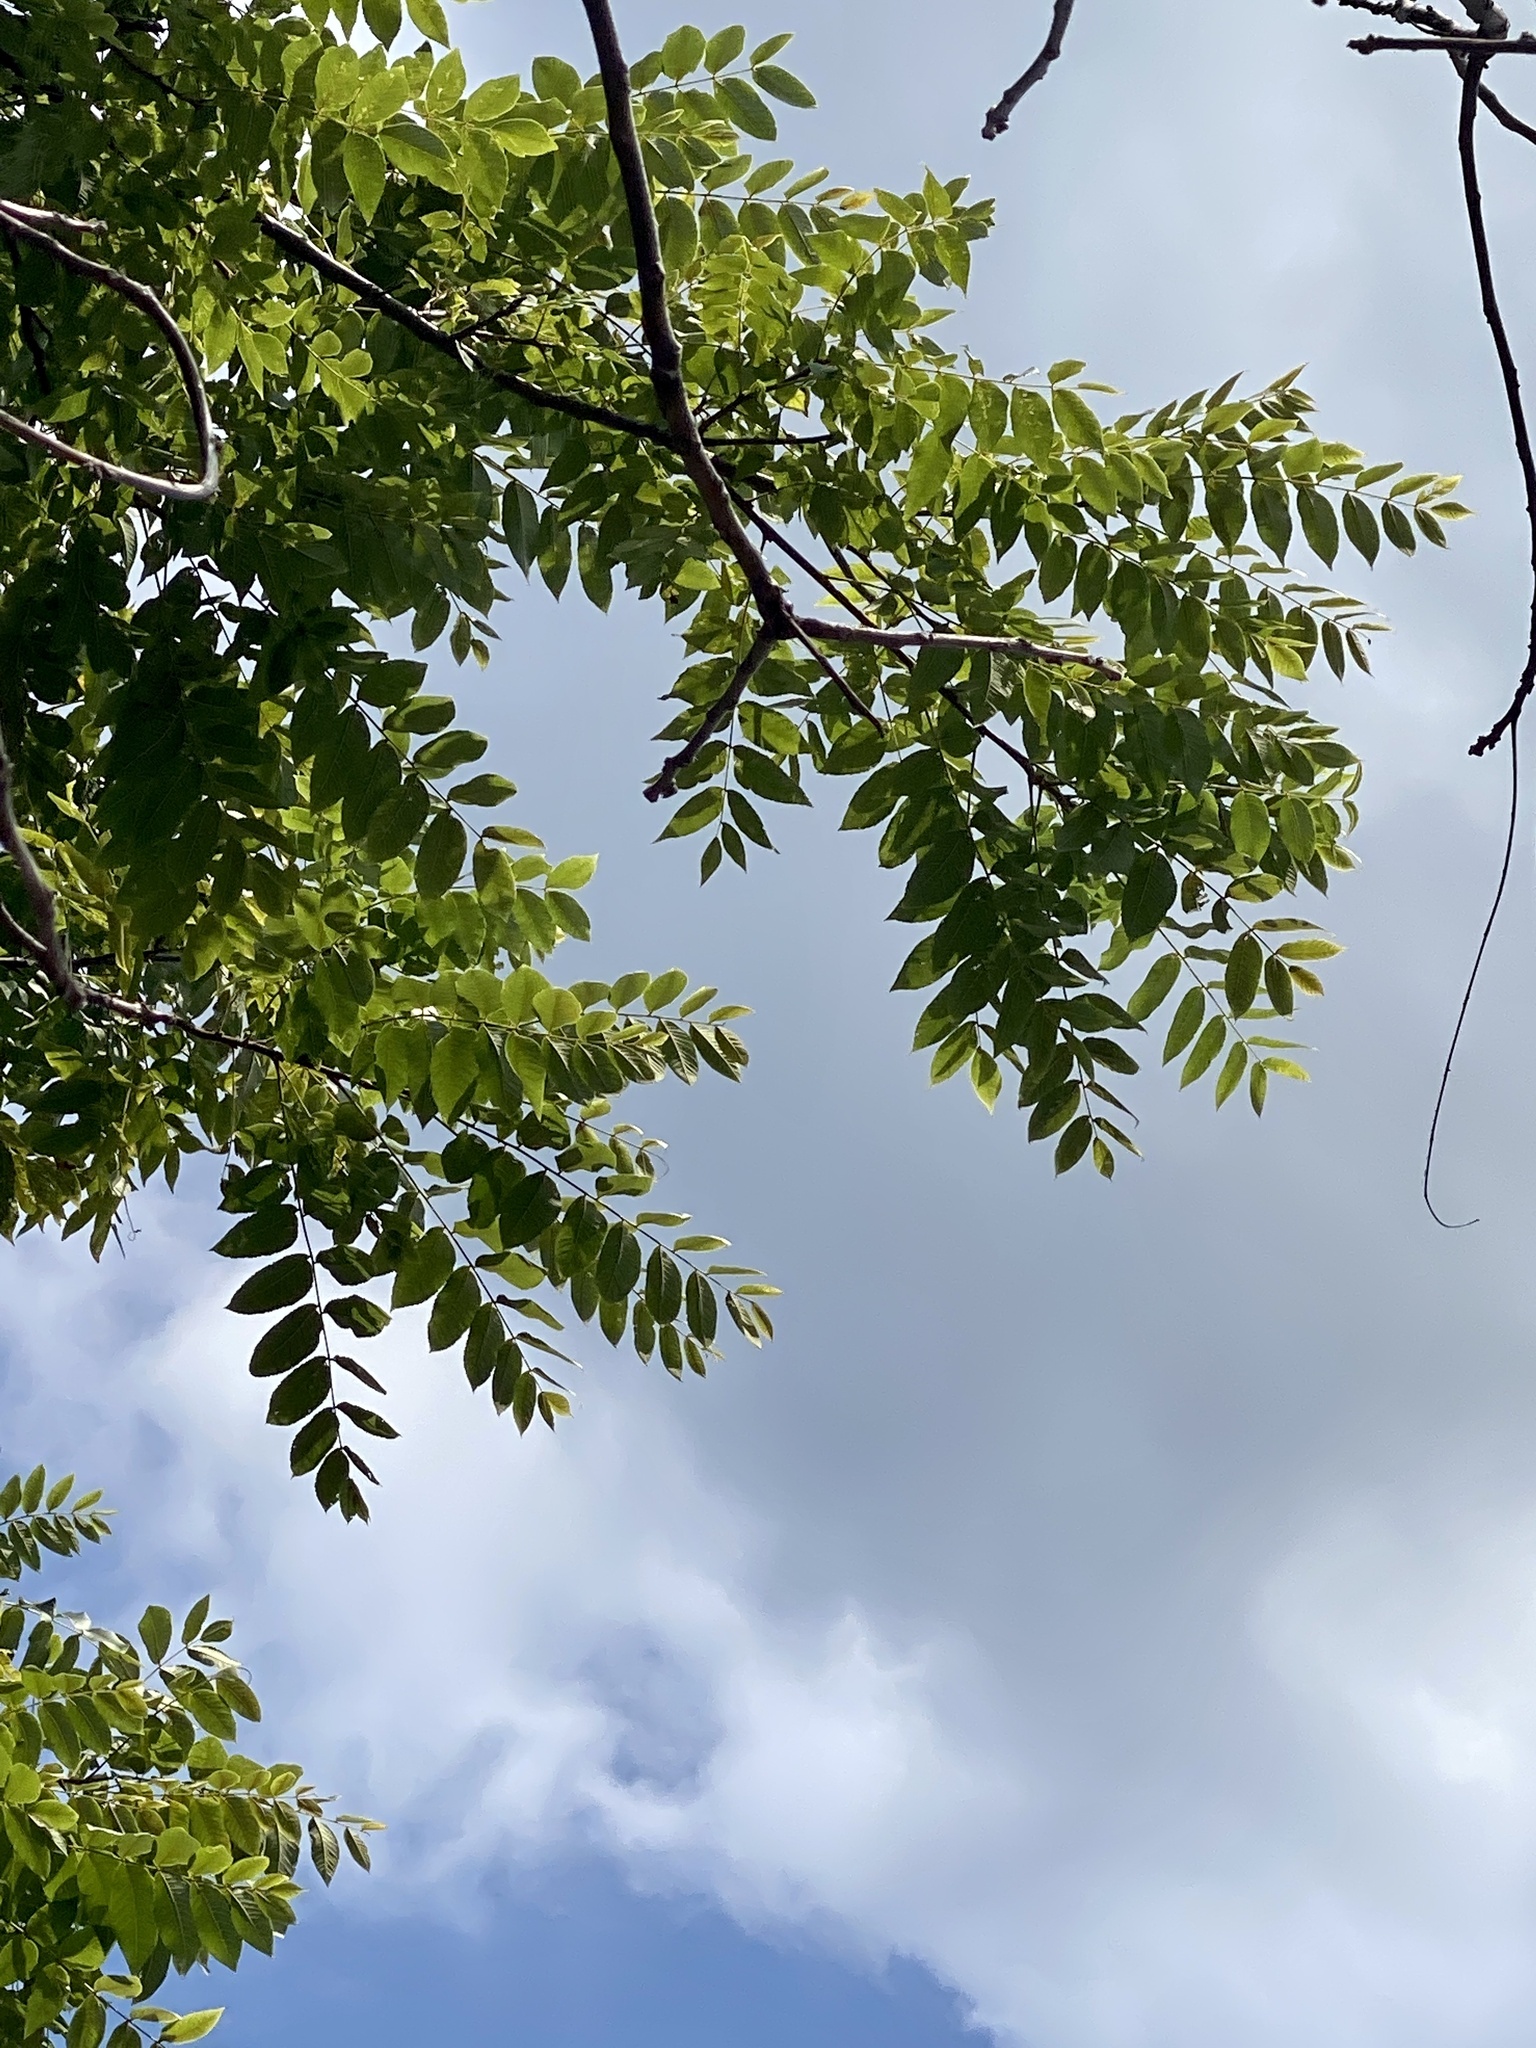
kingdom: Plantae
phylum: Tracheophyta
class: Magnoliopsida
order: Fagales
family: Juglandaceae
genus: Juglans
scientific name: Juglans nigra
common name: Black walnut
